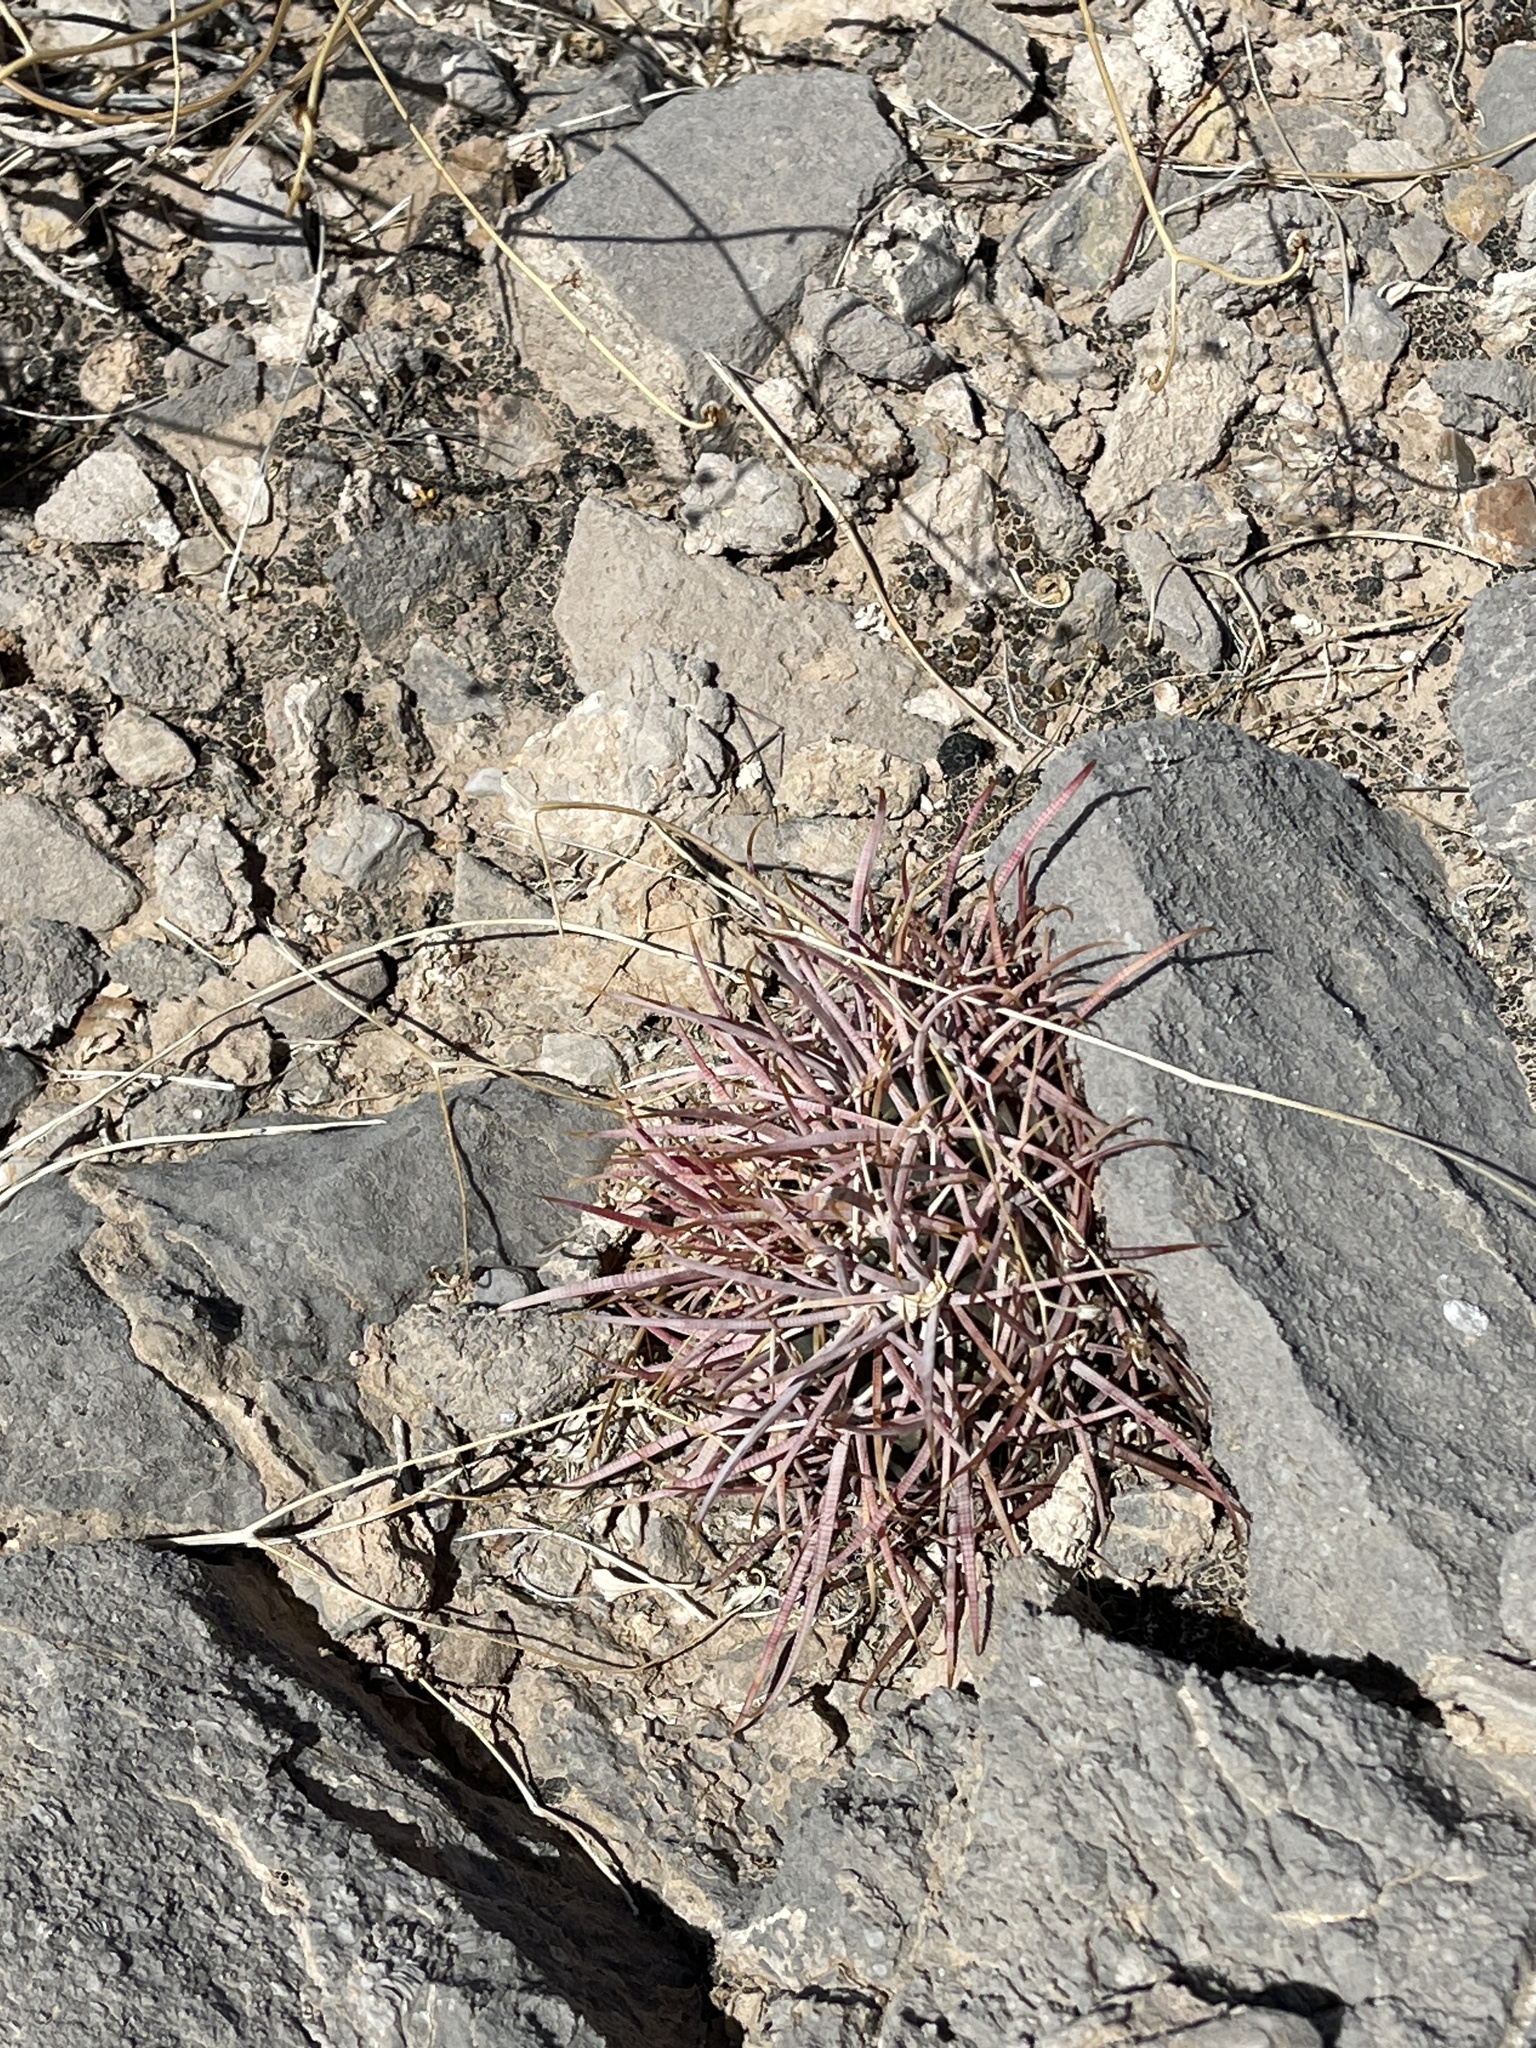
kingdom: Plantae
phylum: Tracheophyta
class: Magnoliopsida
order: Caryophyllales
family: Cactaceae
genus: Ferocactus
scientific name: Ferocactus cylindraceus
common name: California barrel cactus
